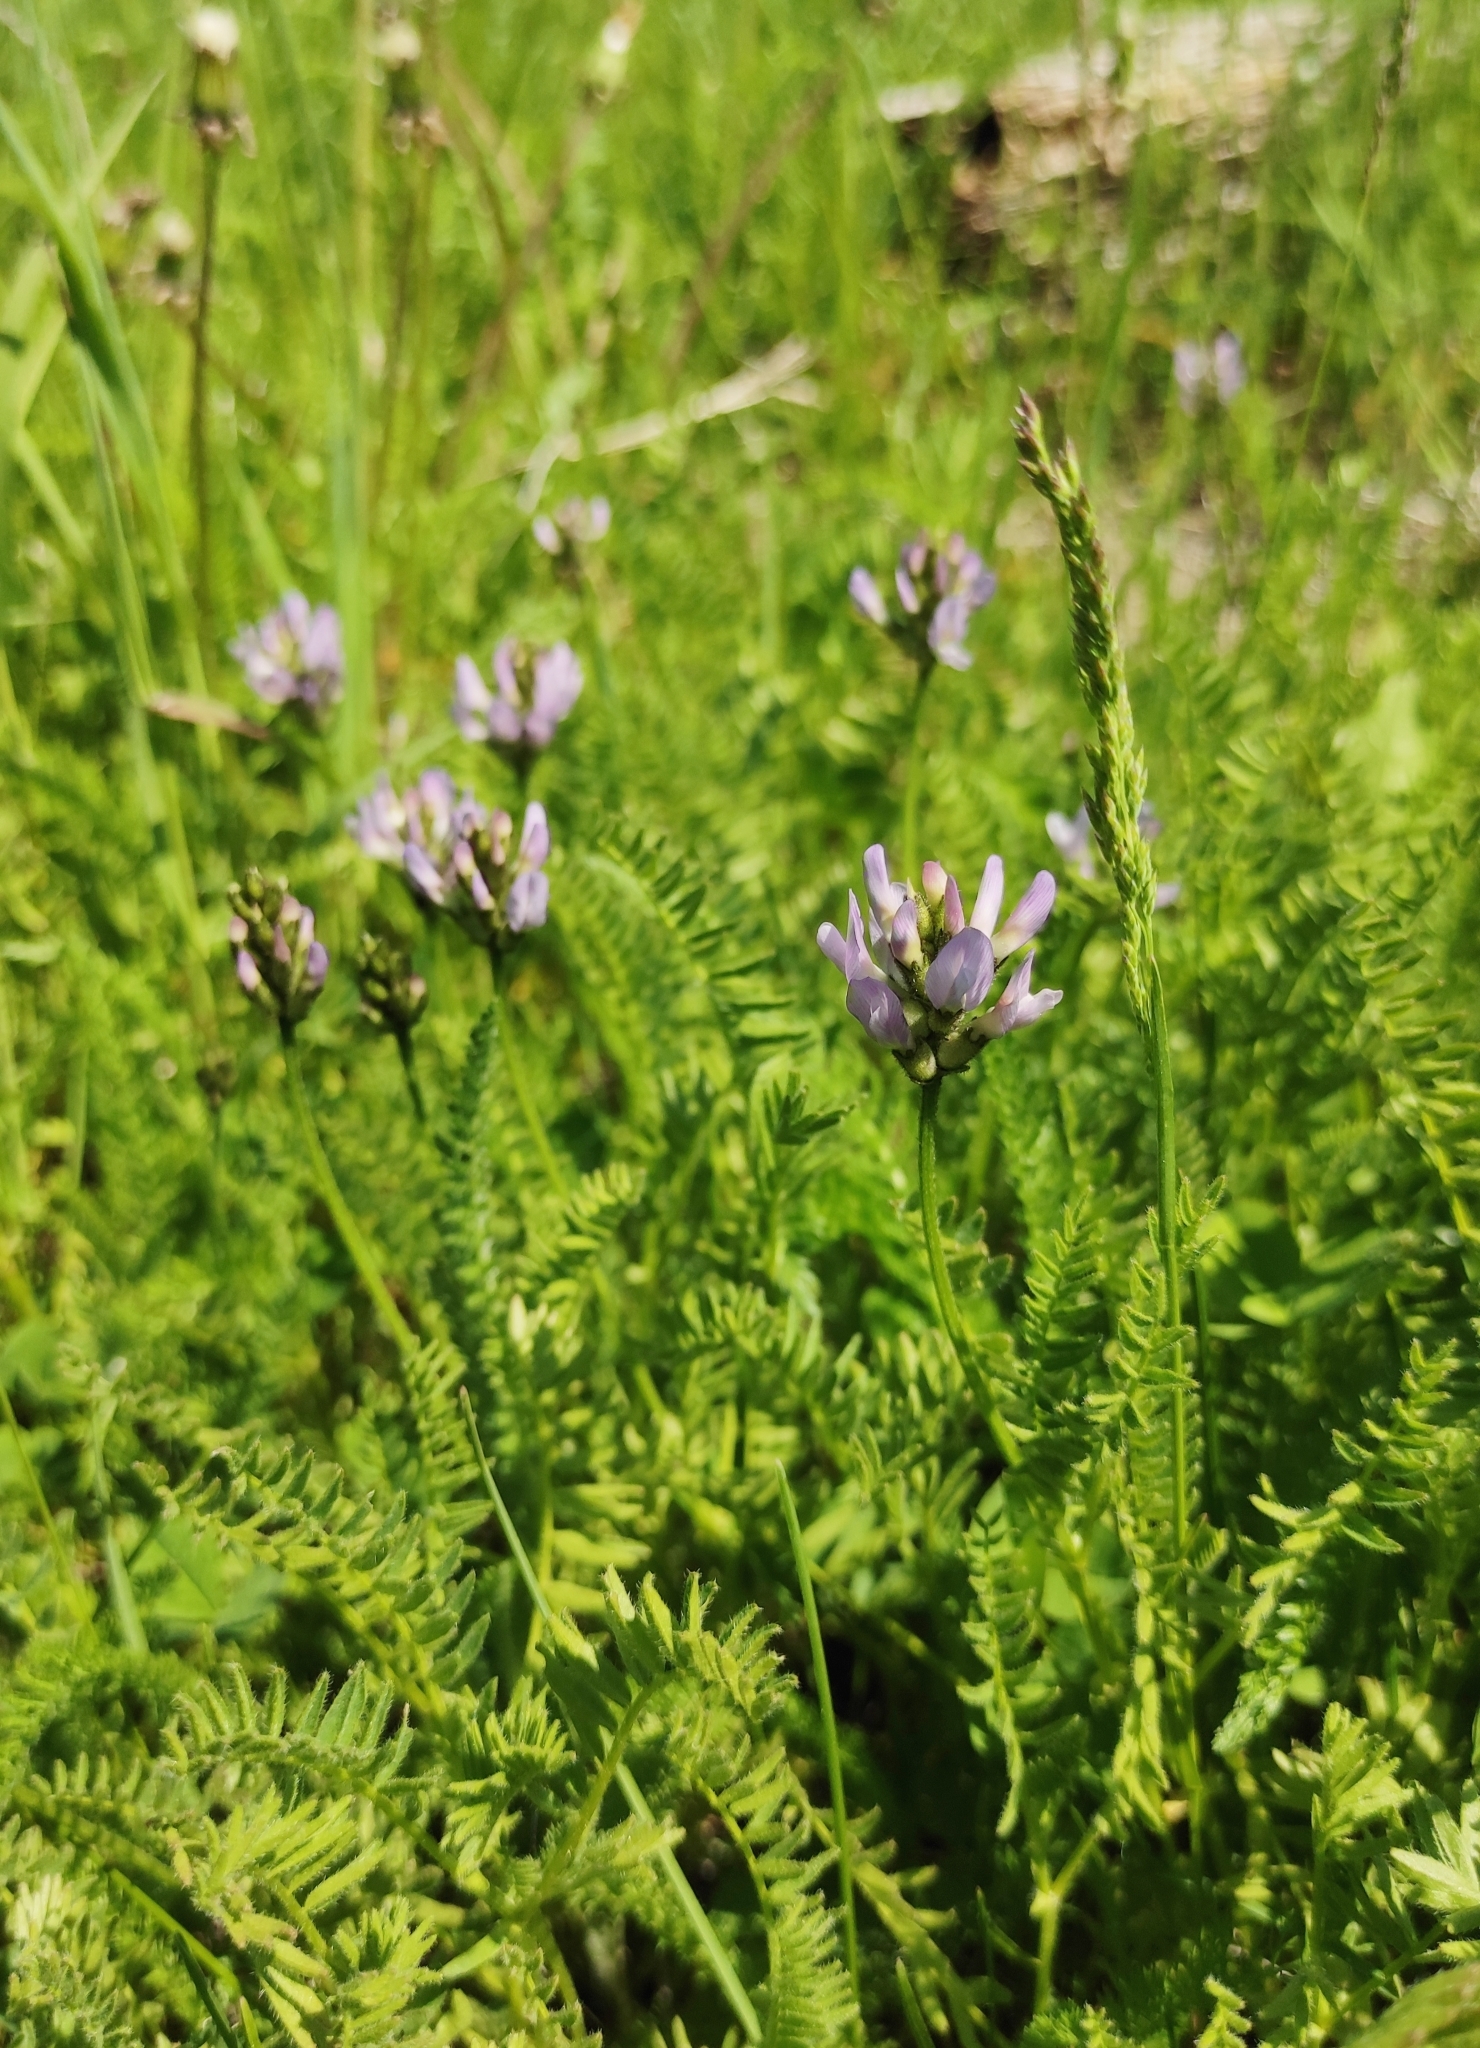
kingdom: Plantae
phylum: Tracheophyta
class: Magnoliopsida
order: Fabales
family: Fabaceae
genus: Astragalus
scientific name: Astragalus danicus
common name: Purple milk-vetch
